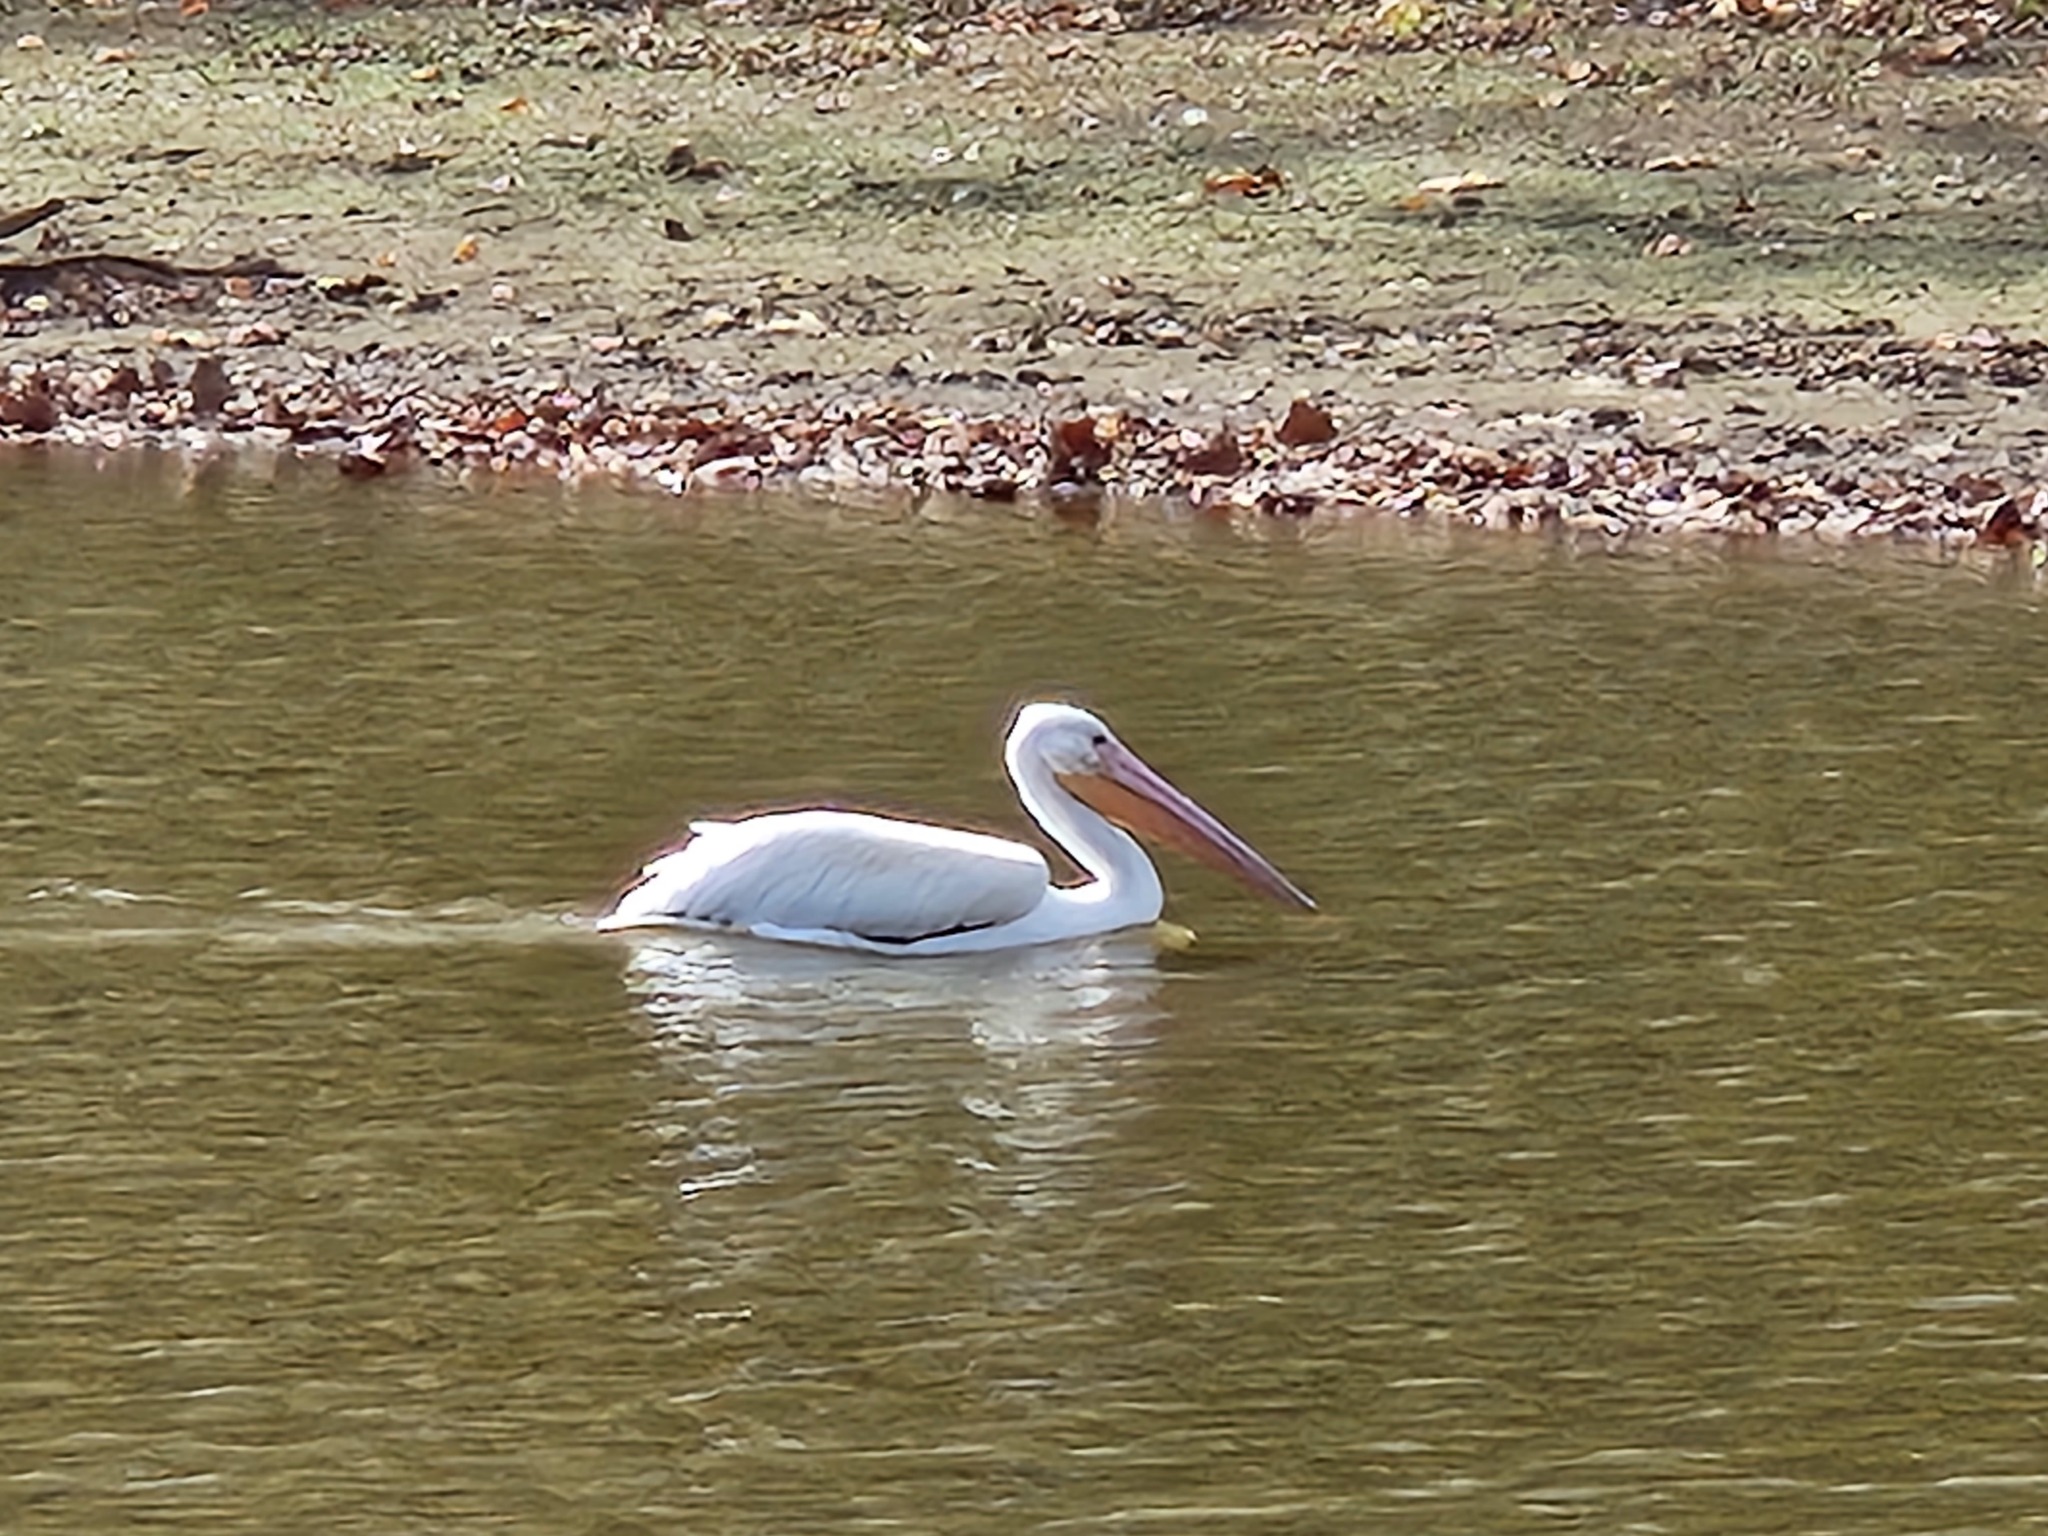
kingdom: Animalia
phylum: Chordata
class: Aves
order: Pelecaniformes
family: Pelecanidae
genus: Pelecanus
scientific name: Pelecanus erythrorhynchos
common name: American white pelican
